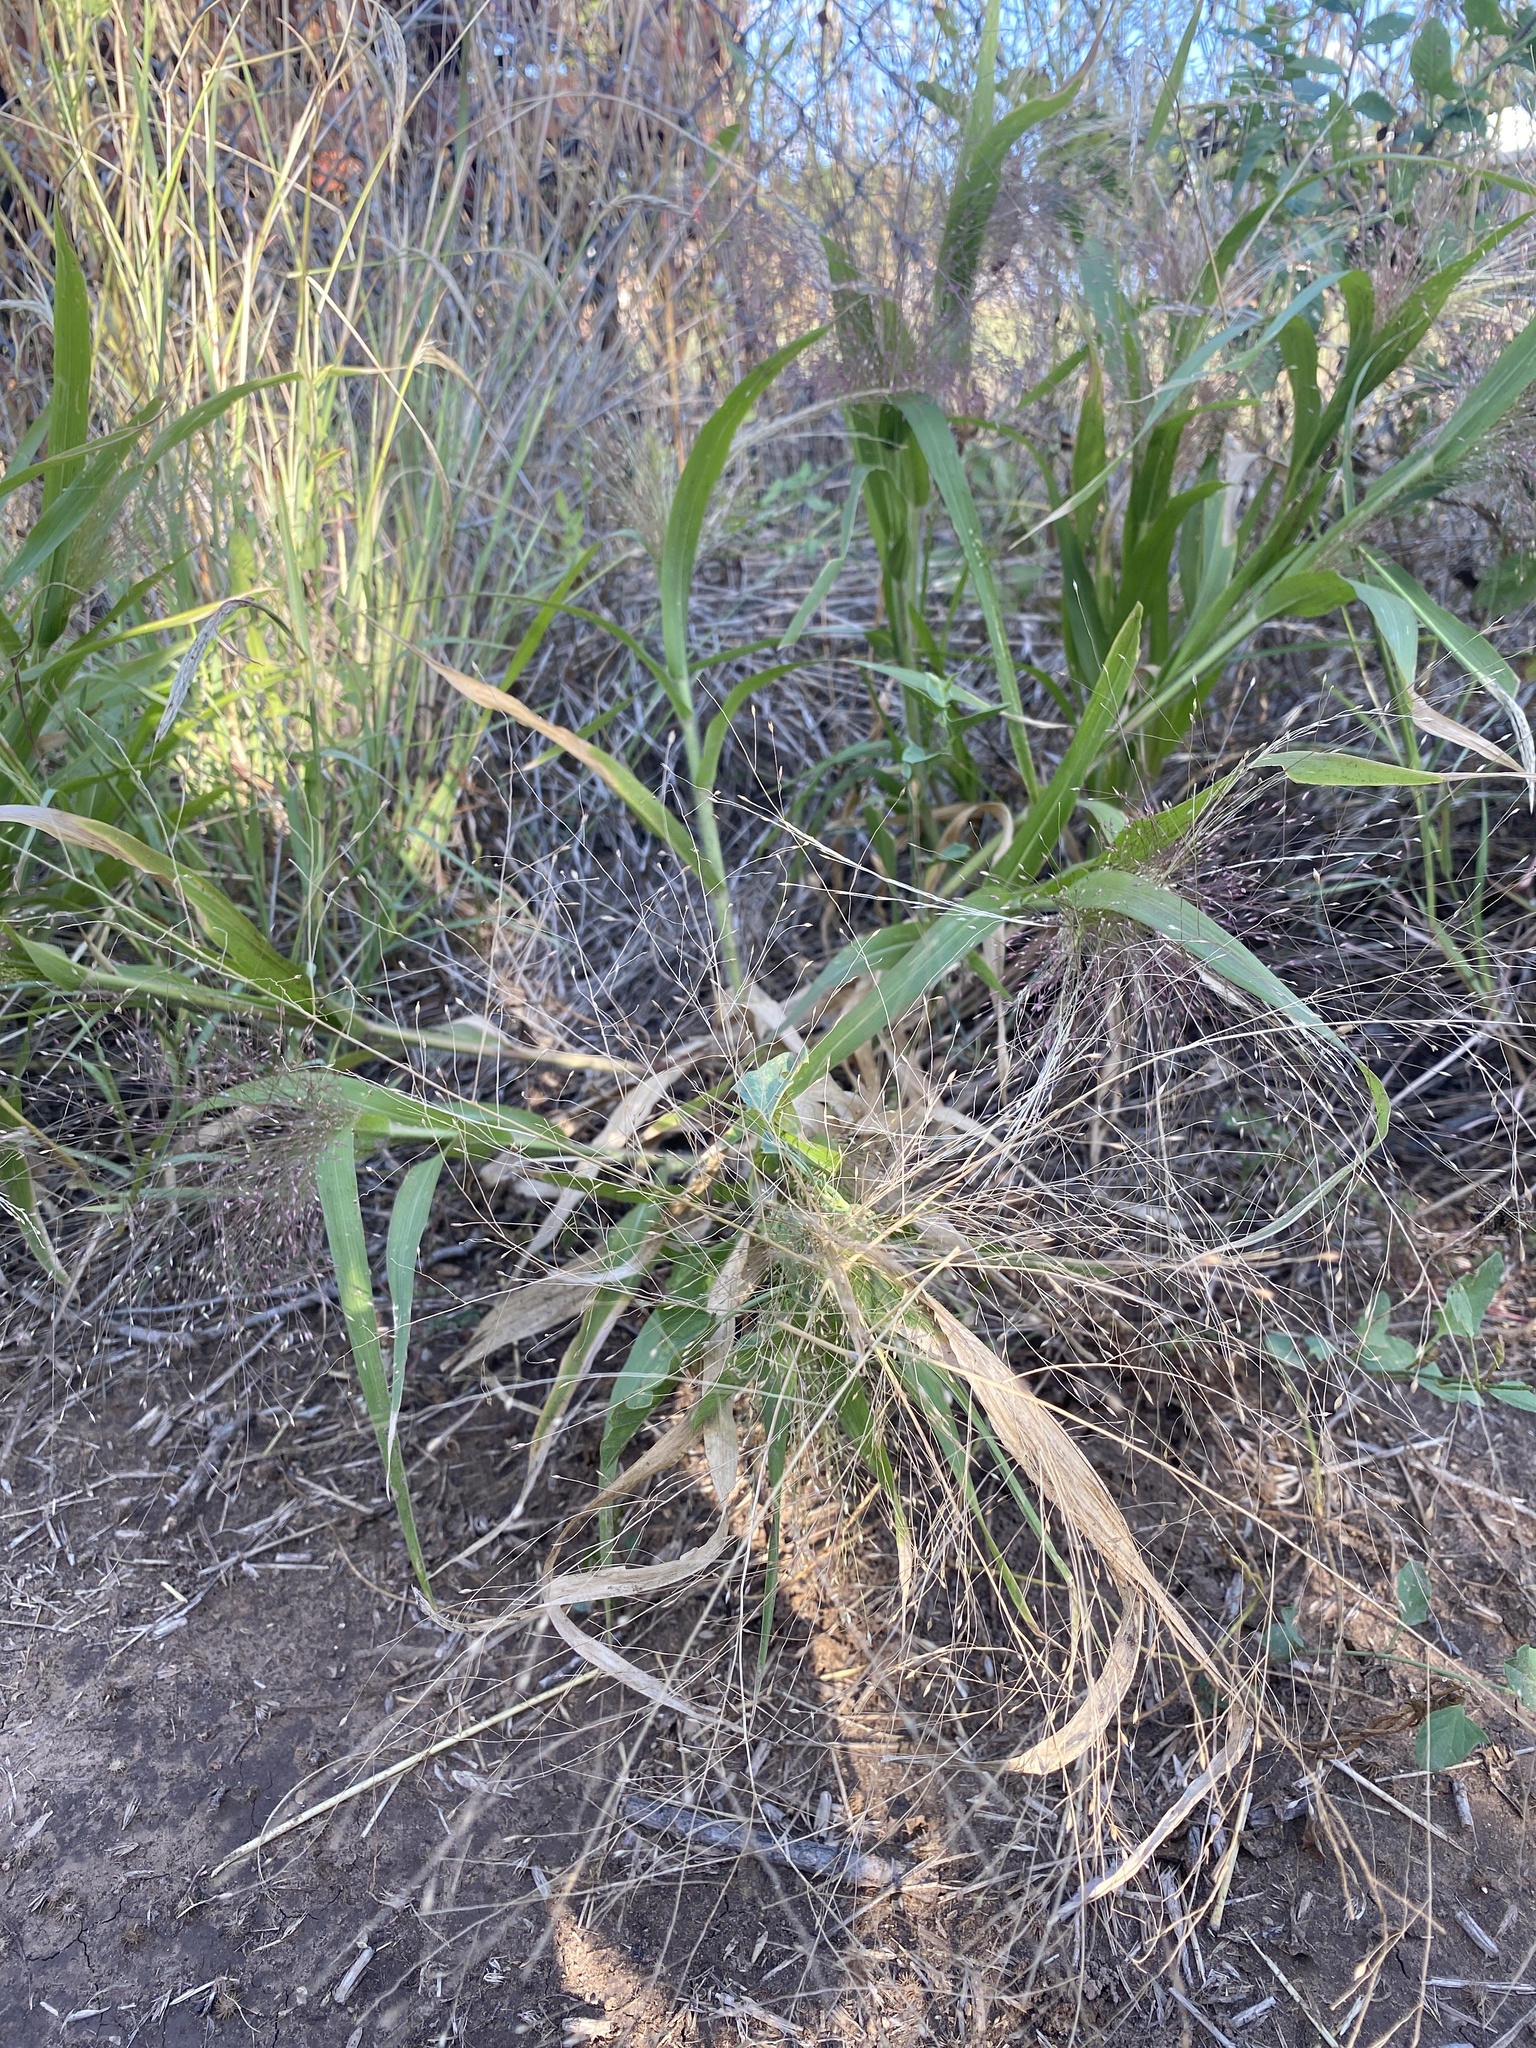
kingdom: Plantae
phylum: Tracheophyta
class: Liliopsida
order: Poales
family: Poaceae
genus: Panicum
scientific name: Panicum capillare
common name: Witch-grass
